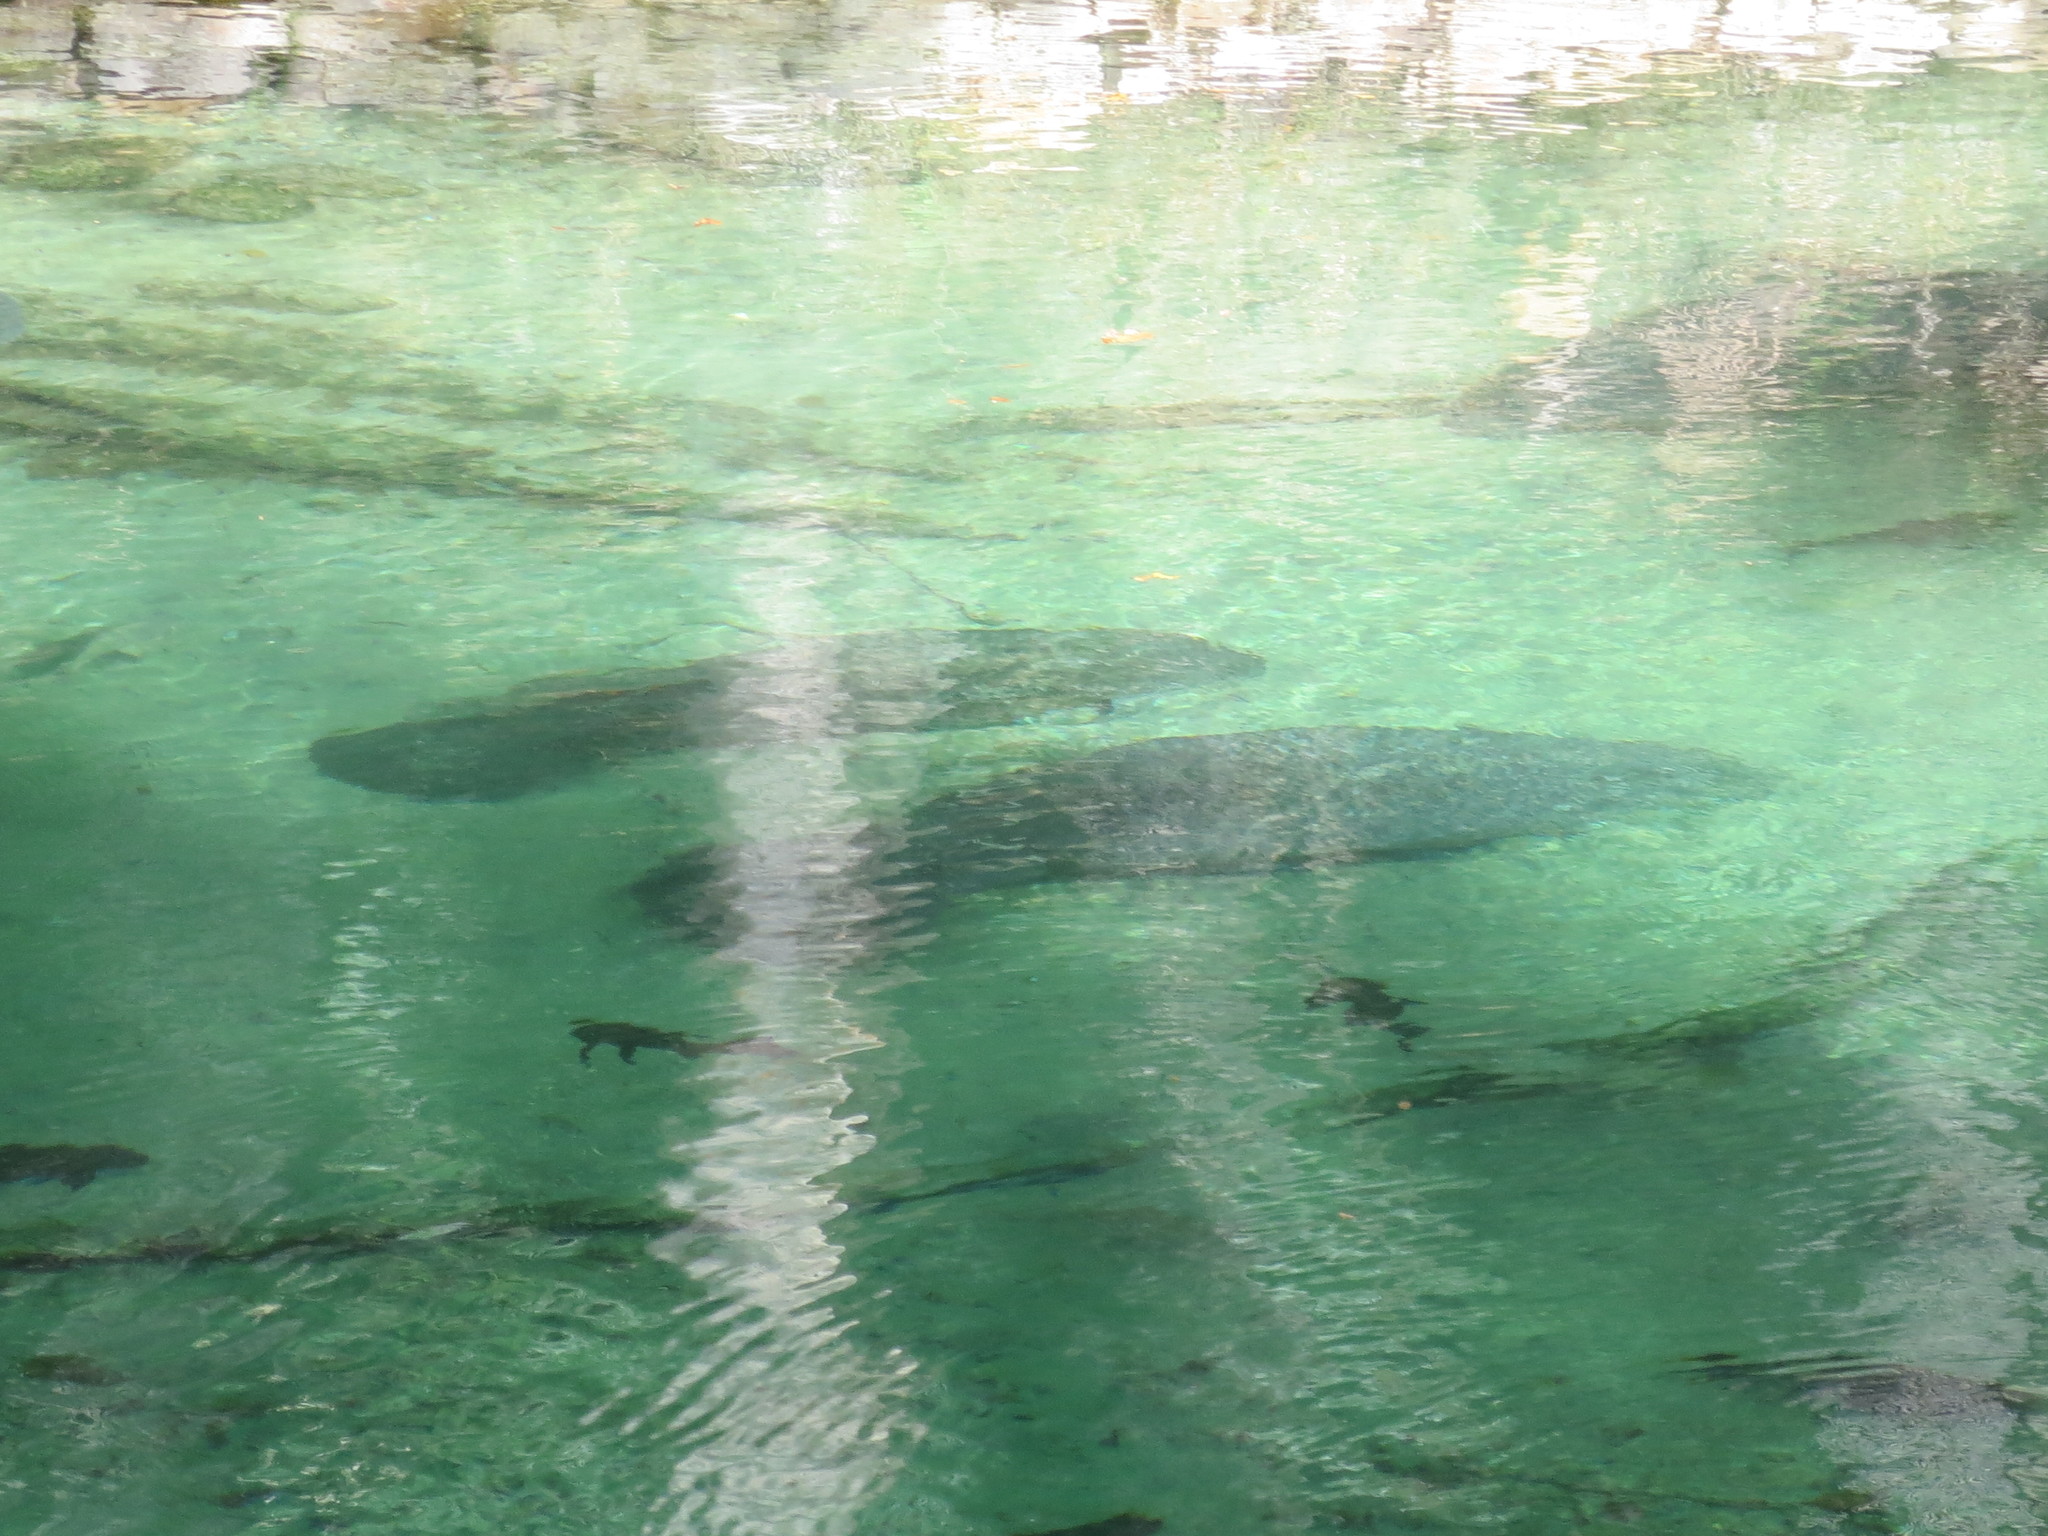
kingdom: Animalia
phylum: Chordata
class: Mammalia
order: Sirenia
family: Trichechidae
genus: Trichechus
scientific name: Trichechus manatus
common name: West indian manatee
